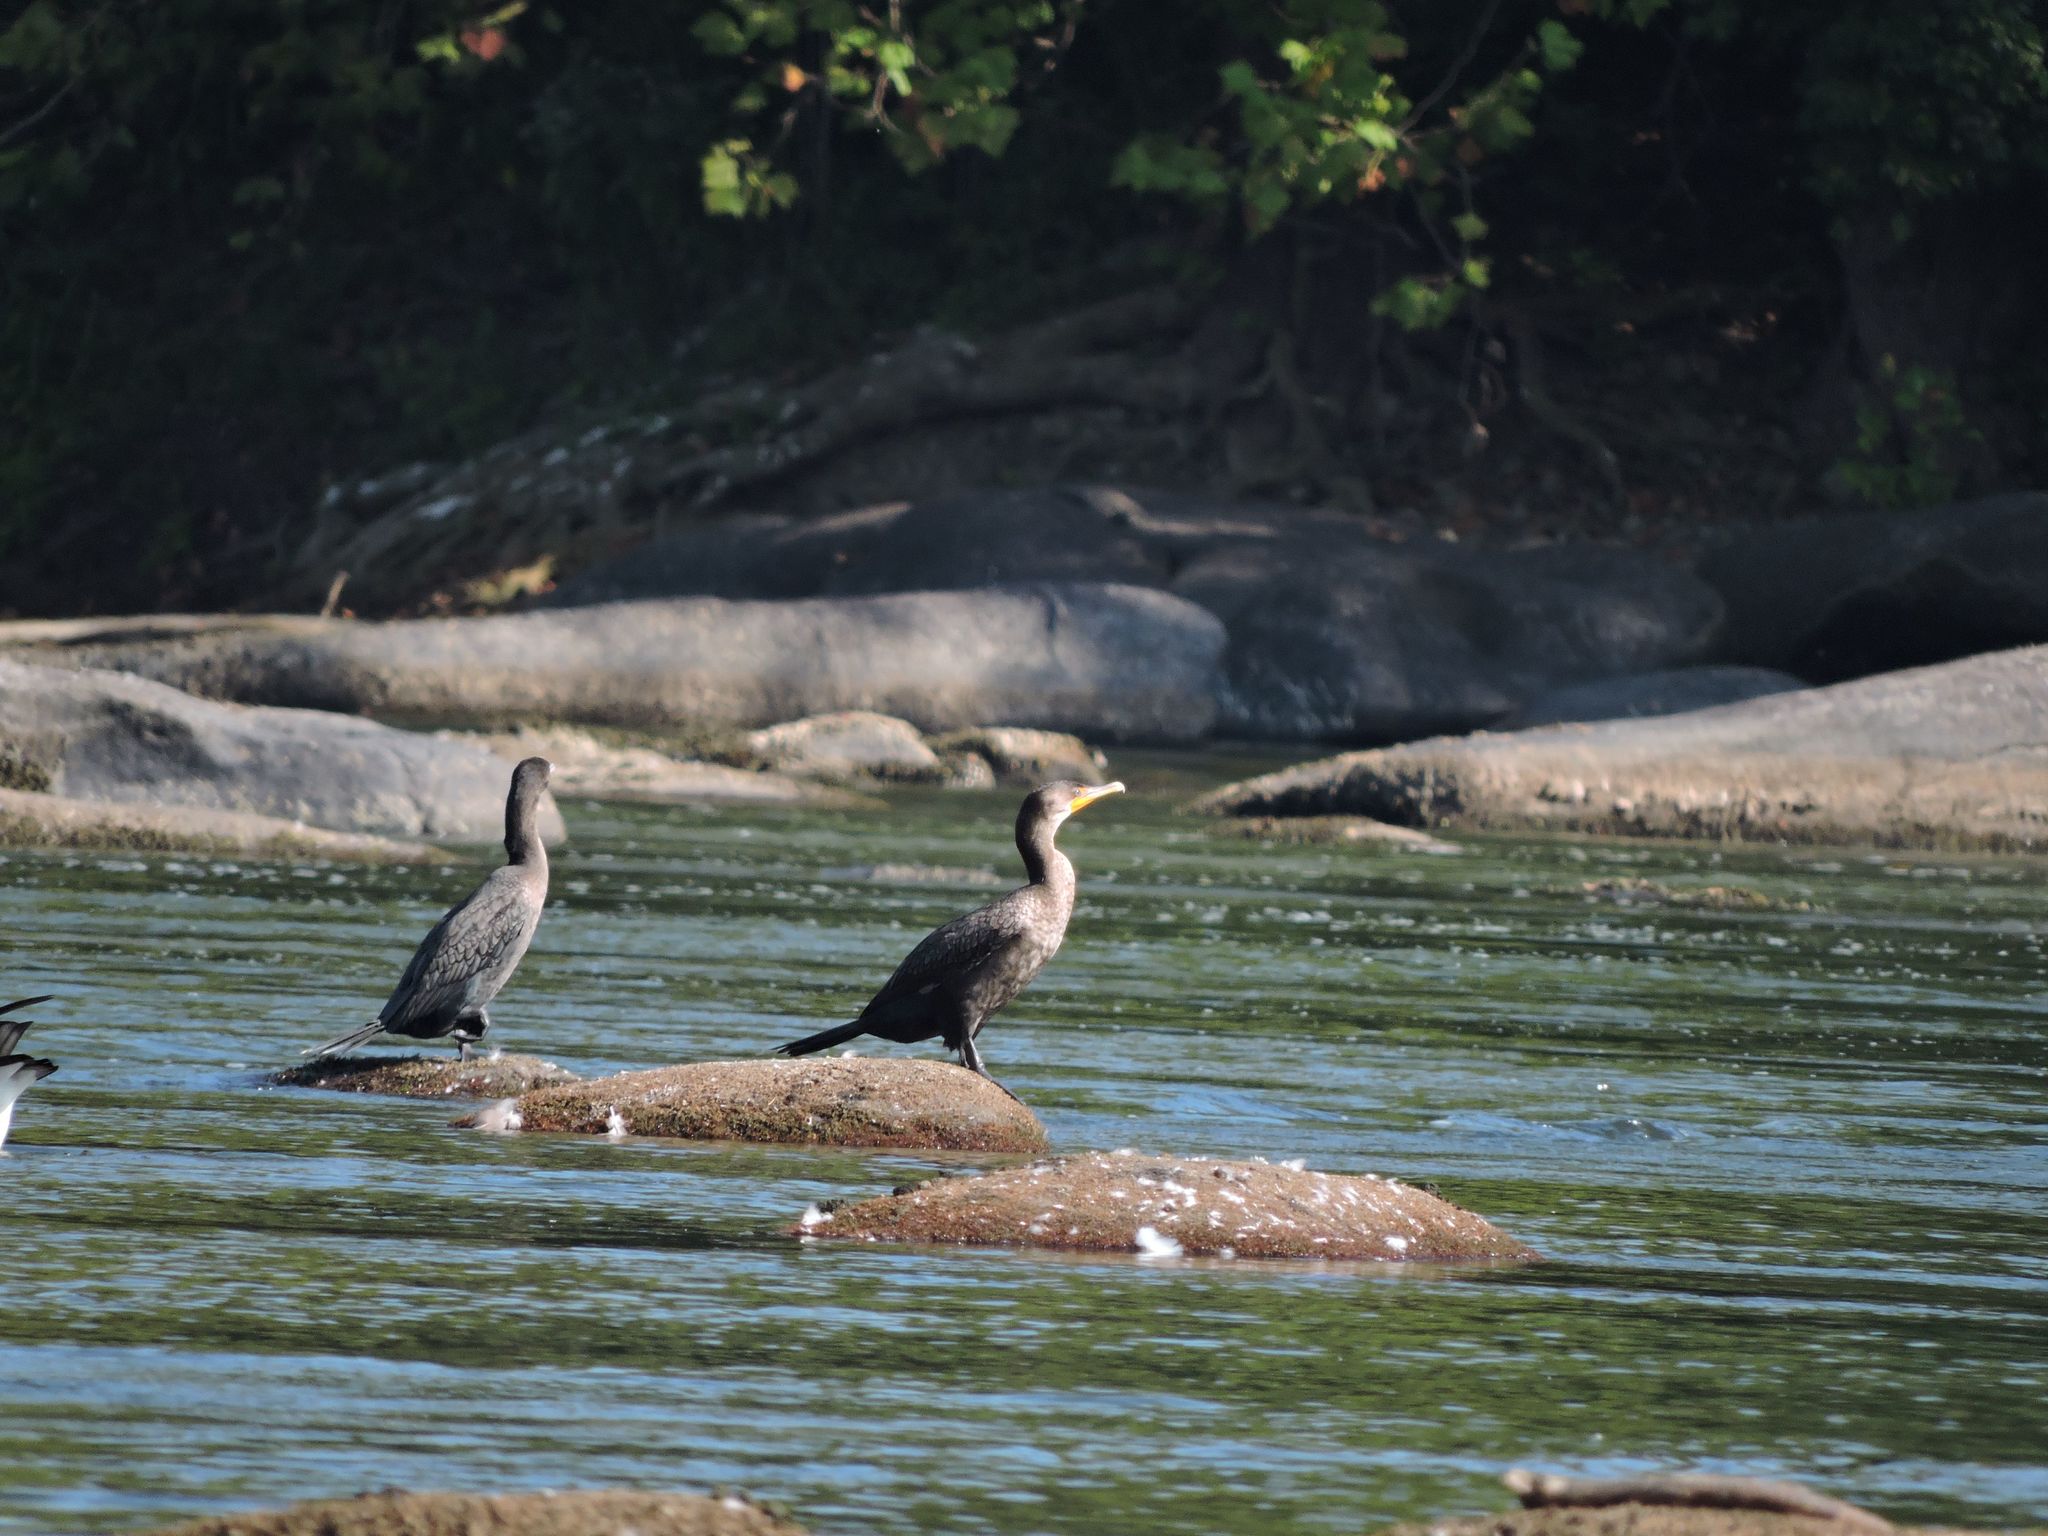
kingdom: Animalia
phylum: Chordata
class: Aves
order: Suliformes
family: Phalacrocoracidae
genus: Phalacrocorax
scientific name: Phalacrocorax auritus
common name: Double-crested cormorant
